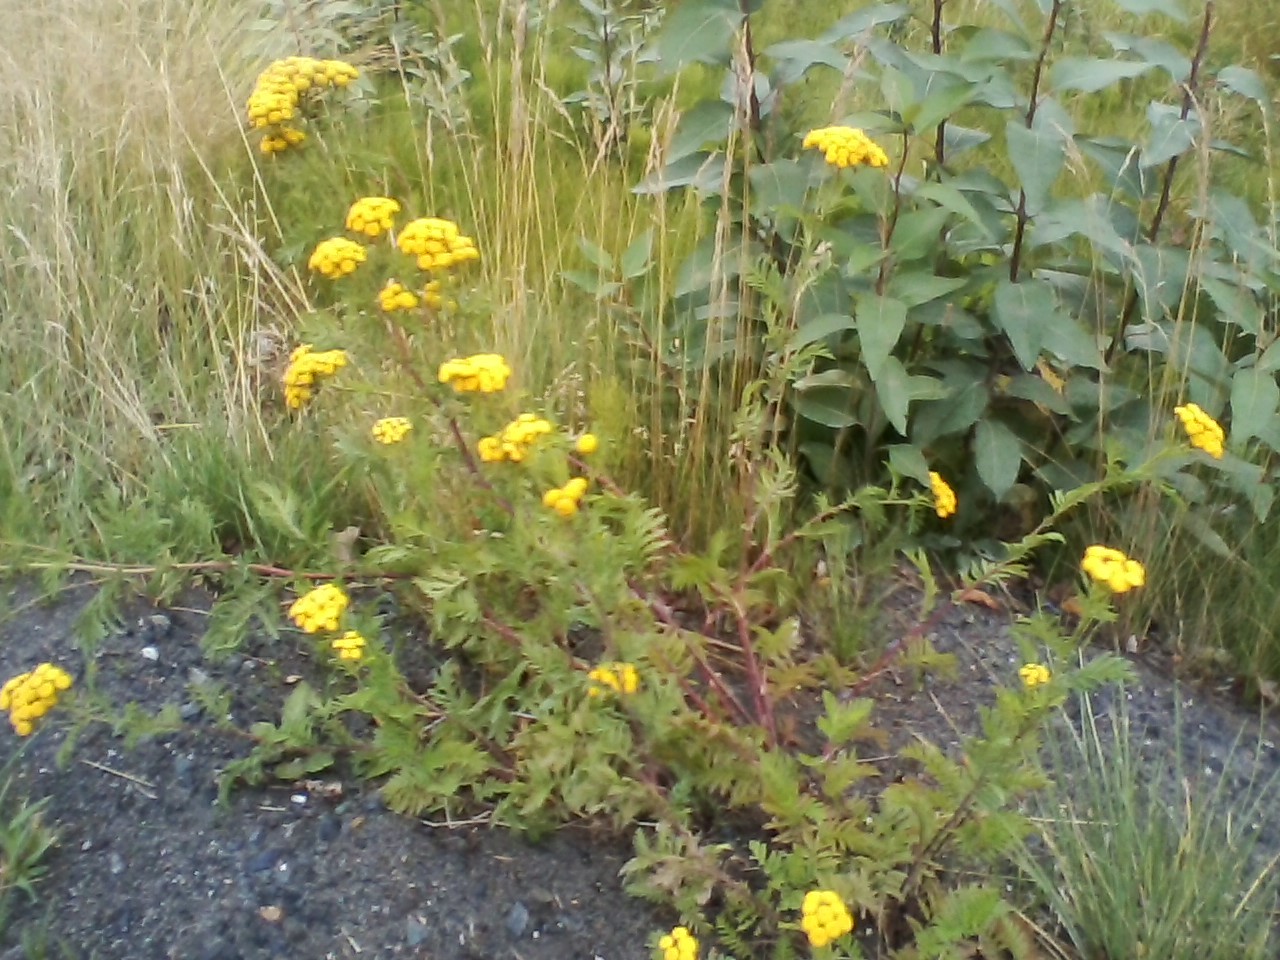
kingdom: Plantae
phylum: Tracheophyta
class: Magnoliopsida
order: Asterales
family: Asteraceae
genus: Tanacetum
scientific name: Tanacetum vulgare
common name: Common tansy
